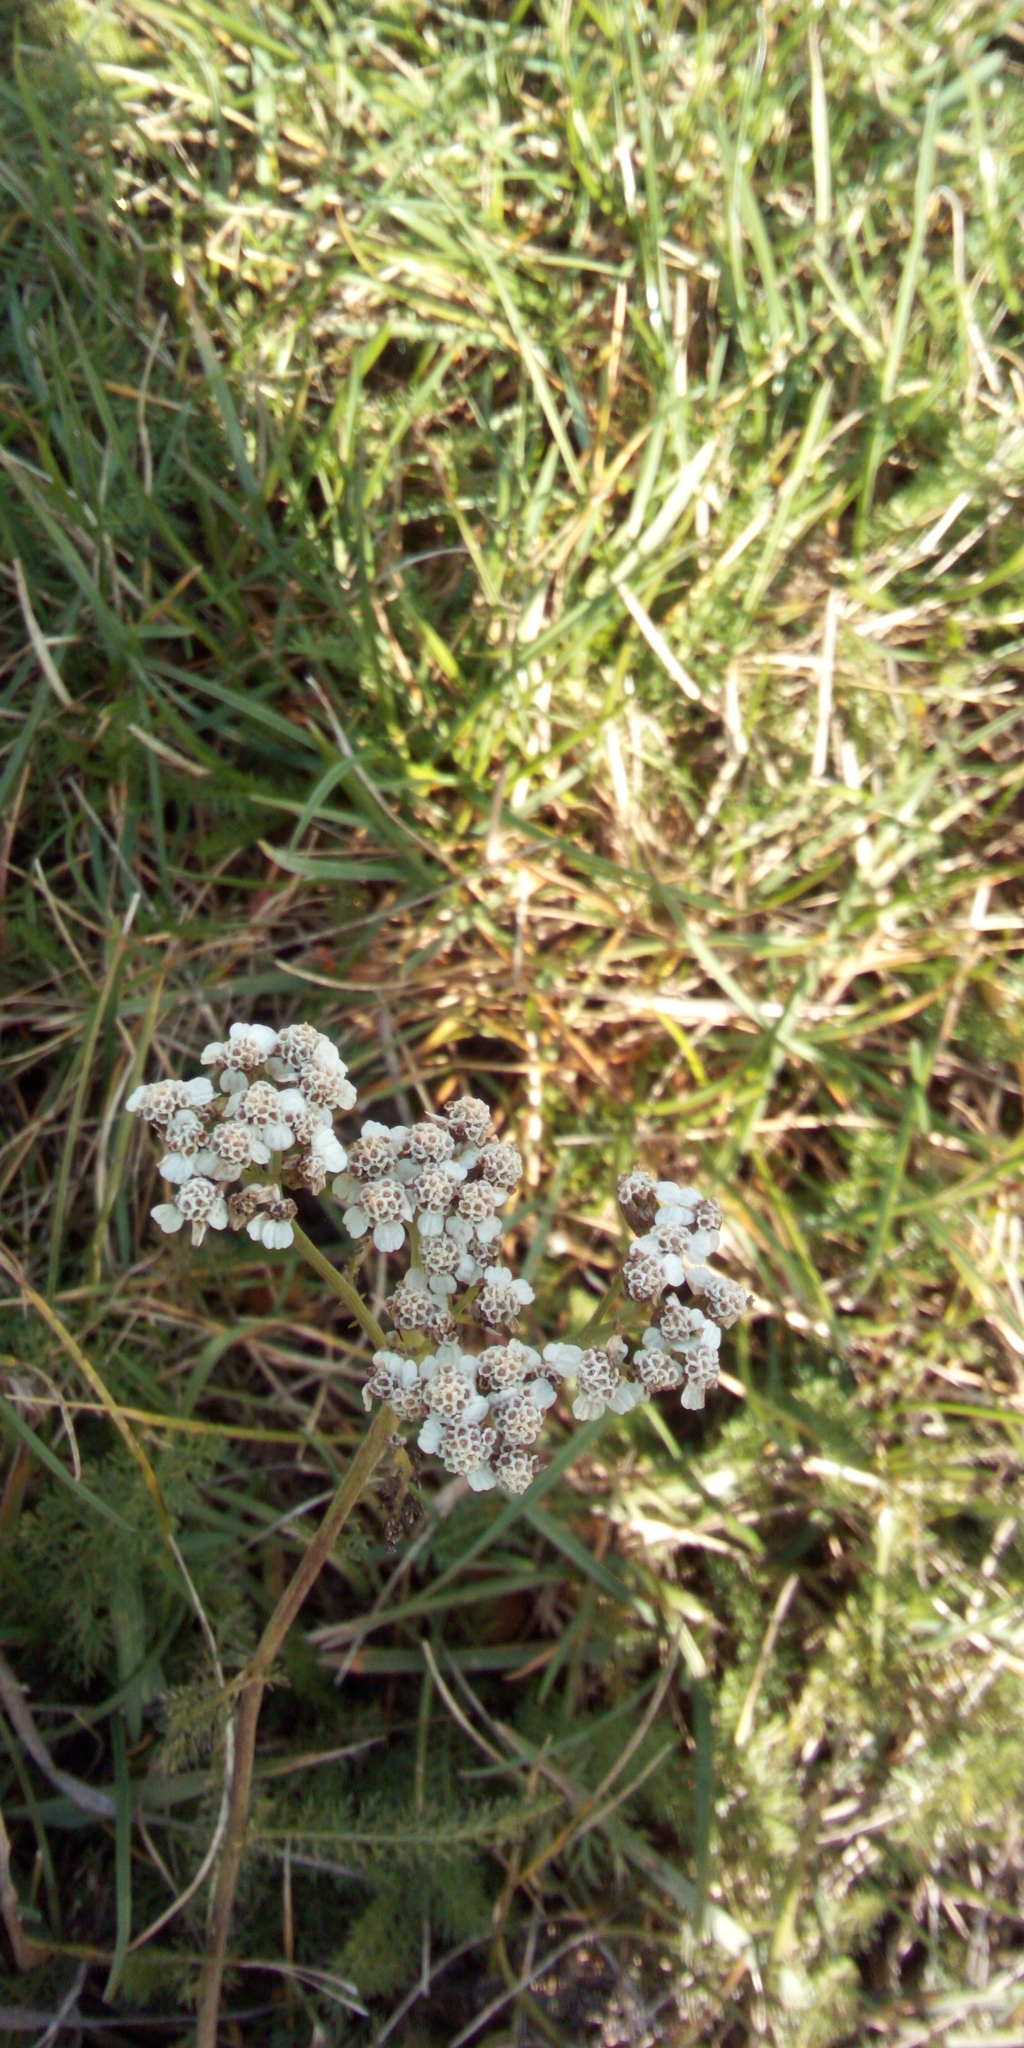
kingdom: Plantae
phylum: Tracheophyta
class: Magnoliopsida
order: Asterales
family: Asteraceae
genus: Achillea
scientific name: Achillea millefolium
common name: Yarrow
